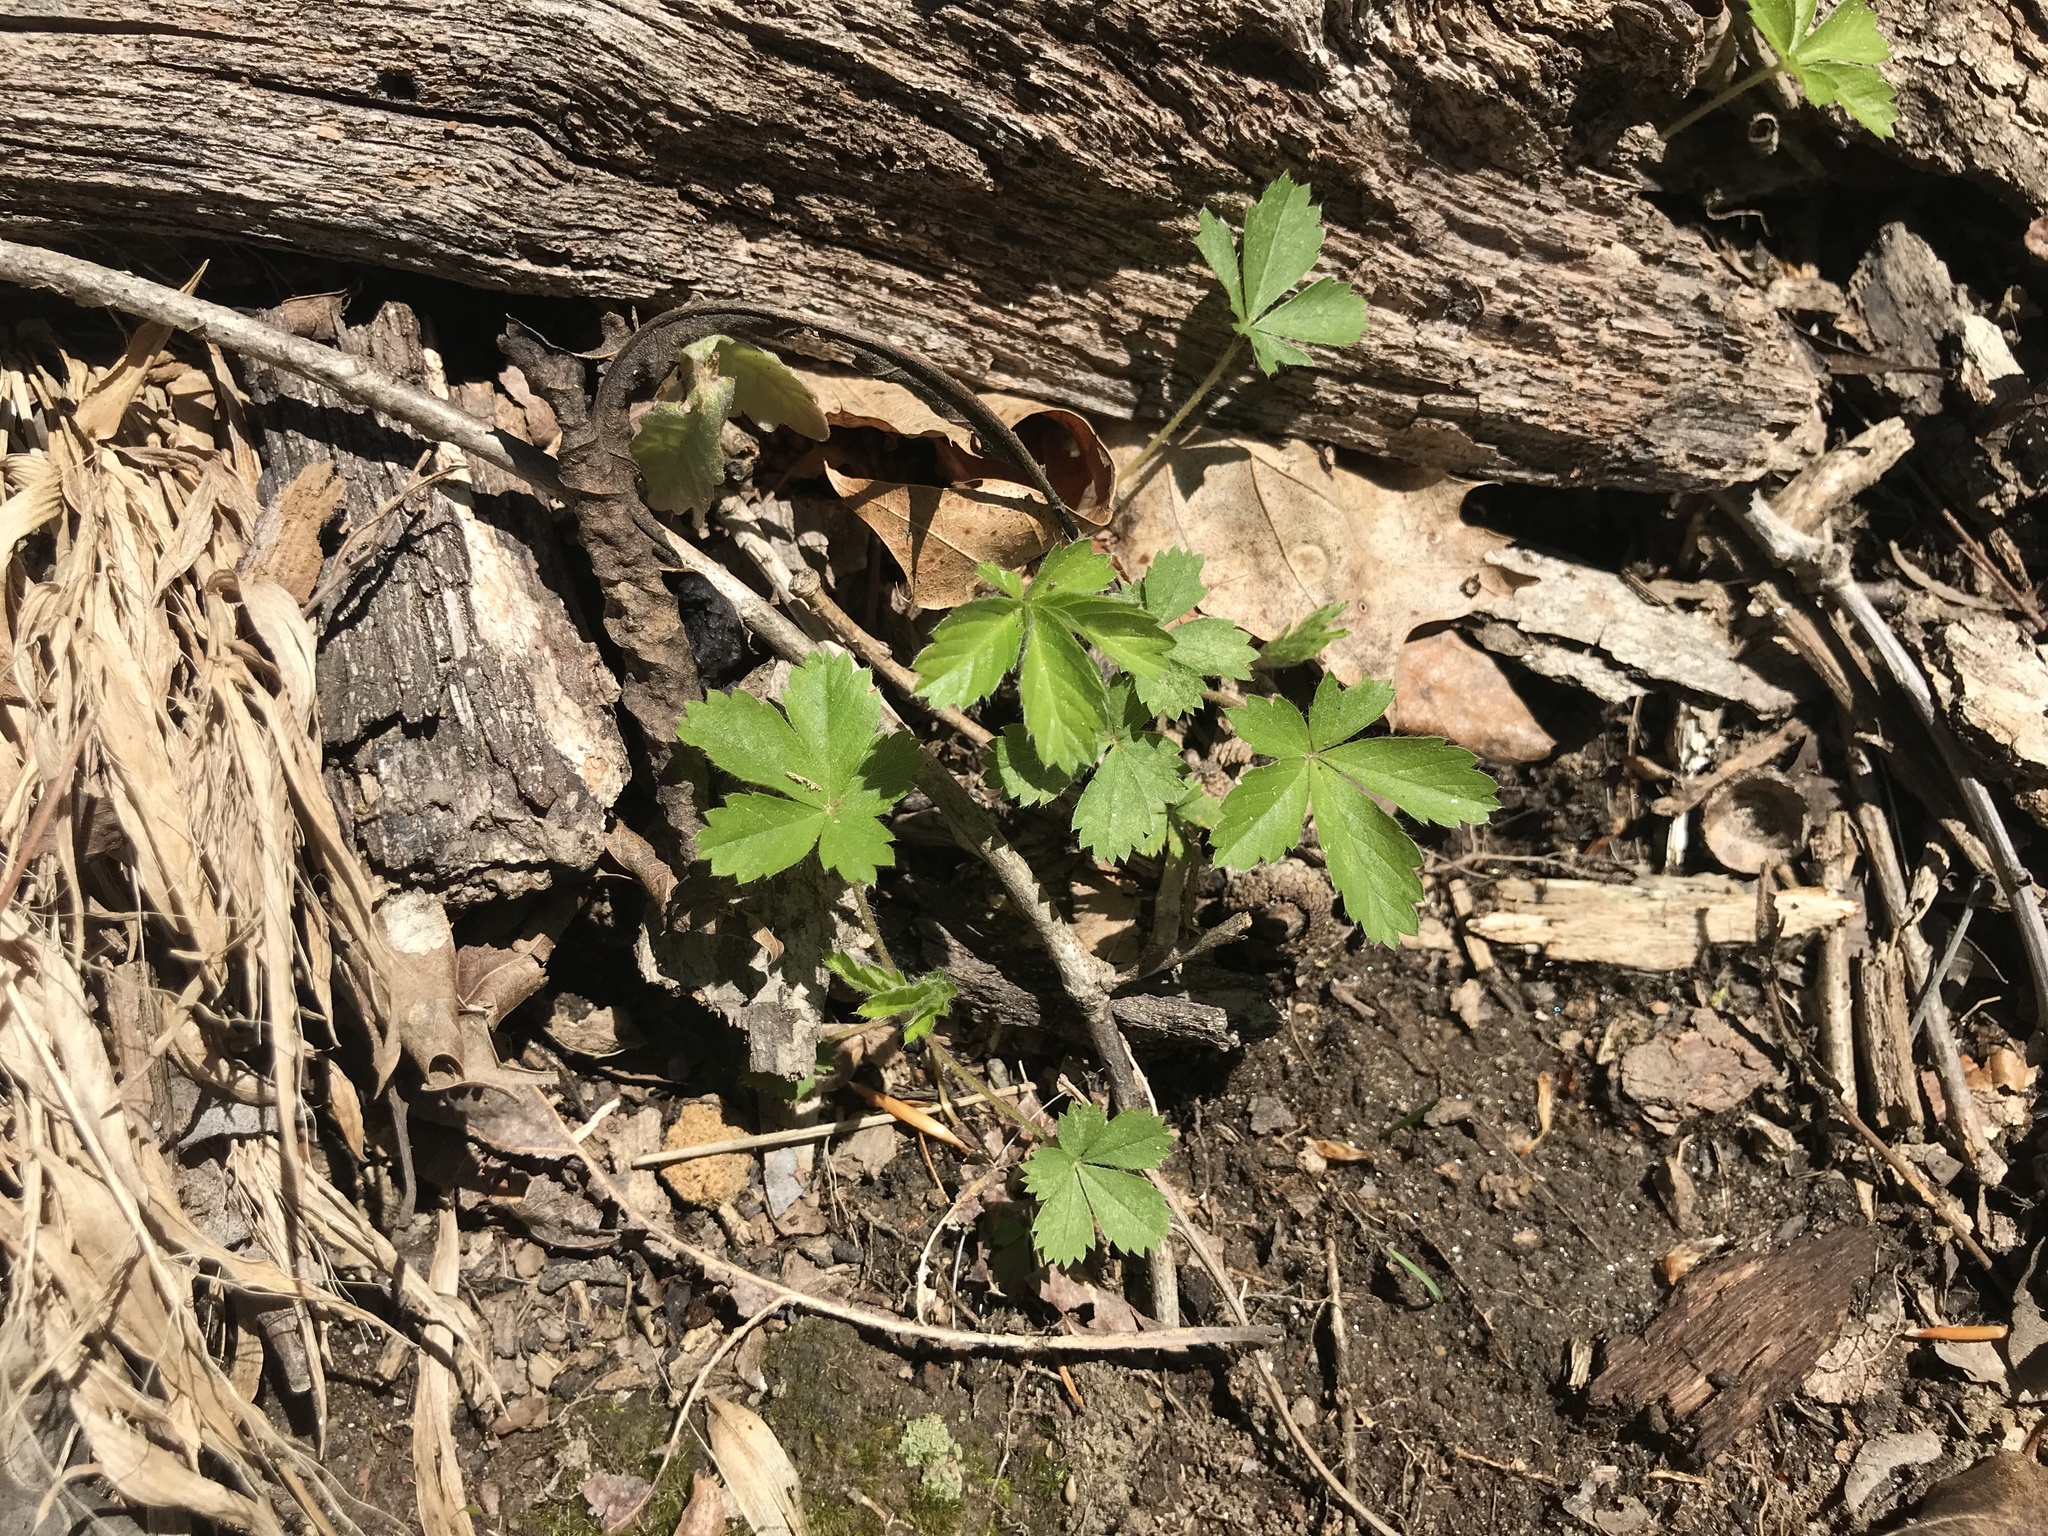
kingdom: Plantae
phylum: Tracheophyta
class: Magnoliopsida
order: Rosales
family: Rosaceae
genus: Potentilla
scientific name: Potentilla canadensis
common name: Canada cinquefoil
